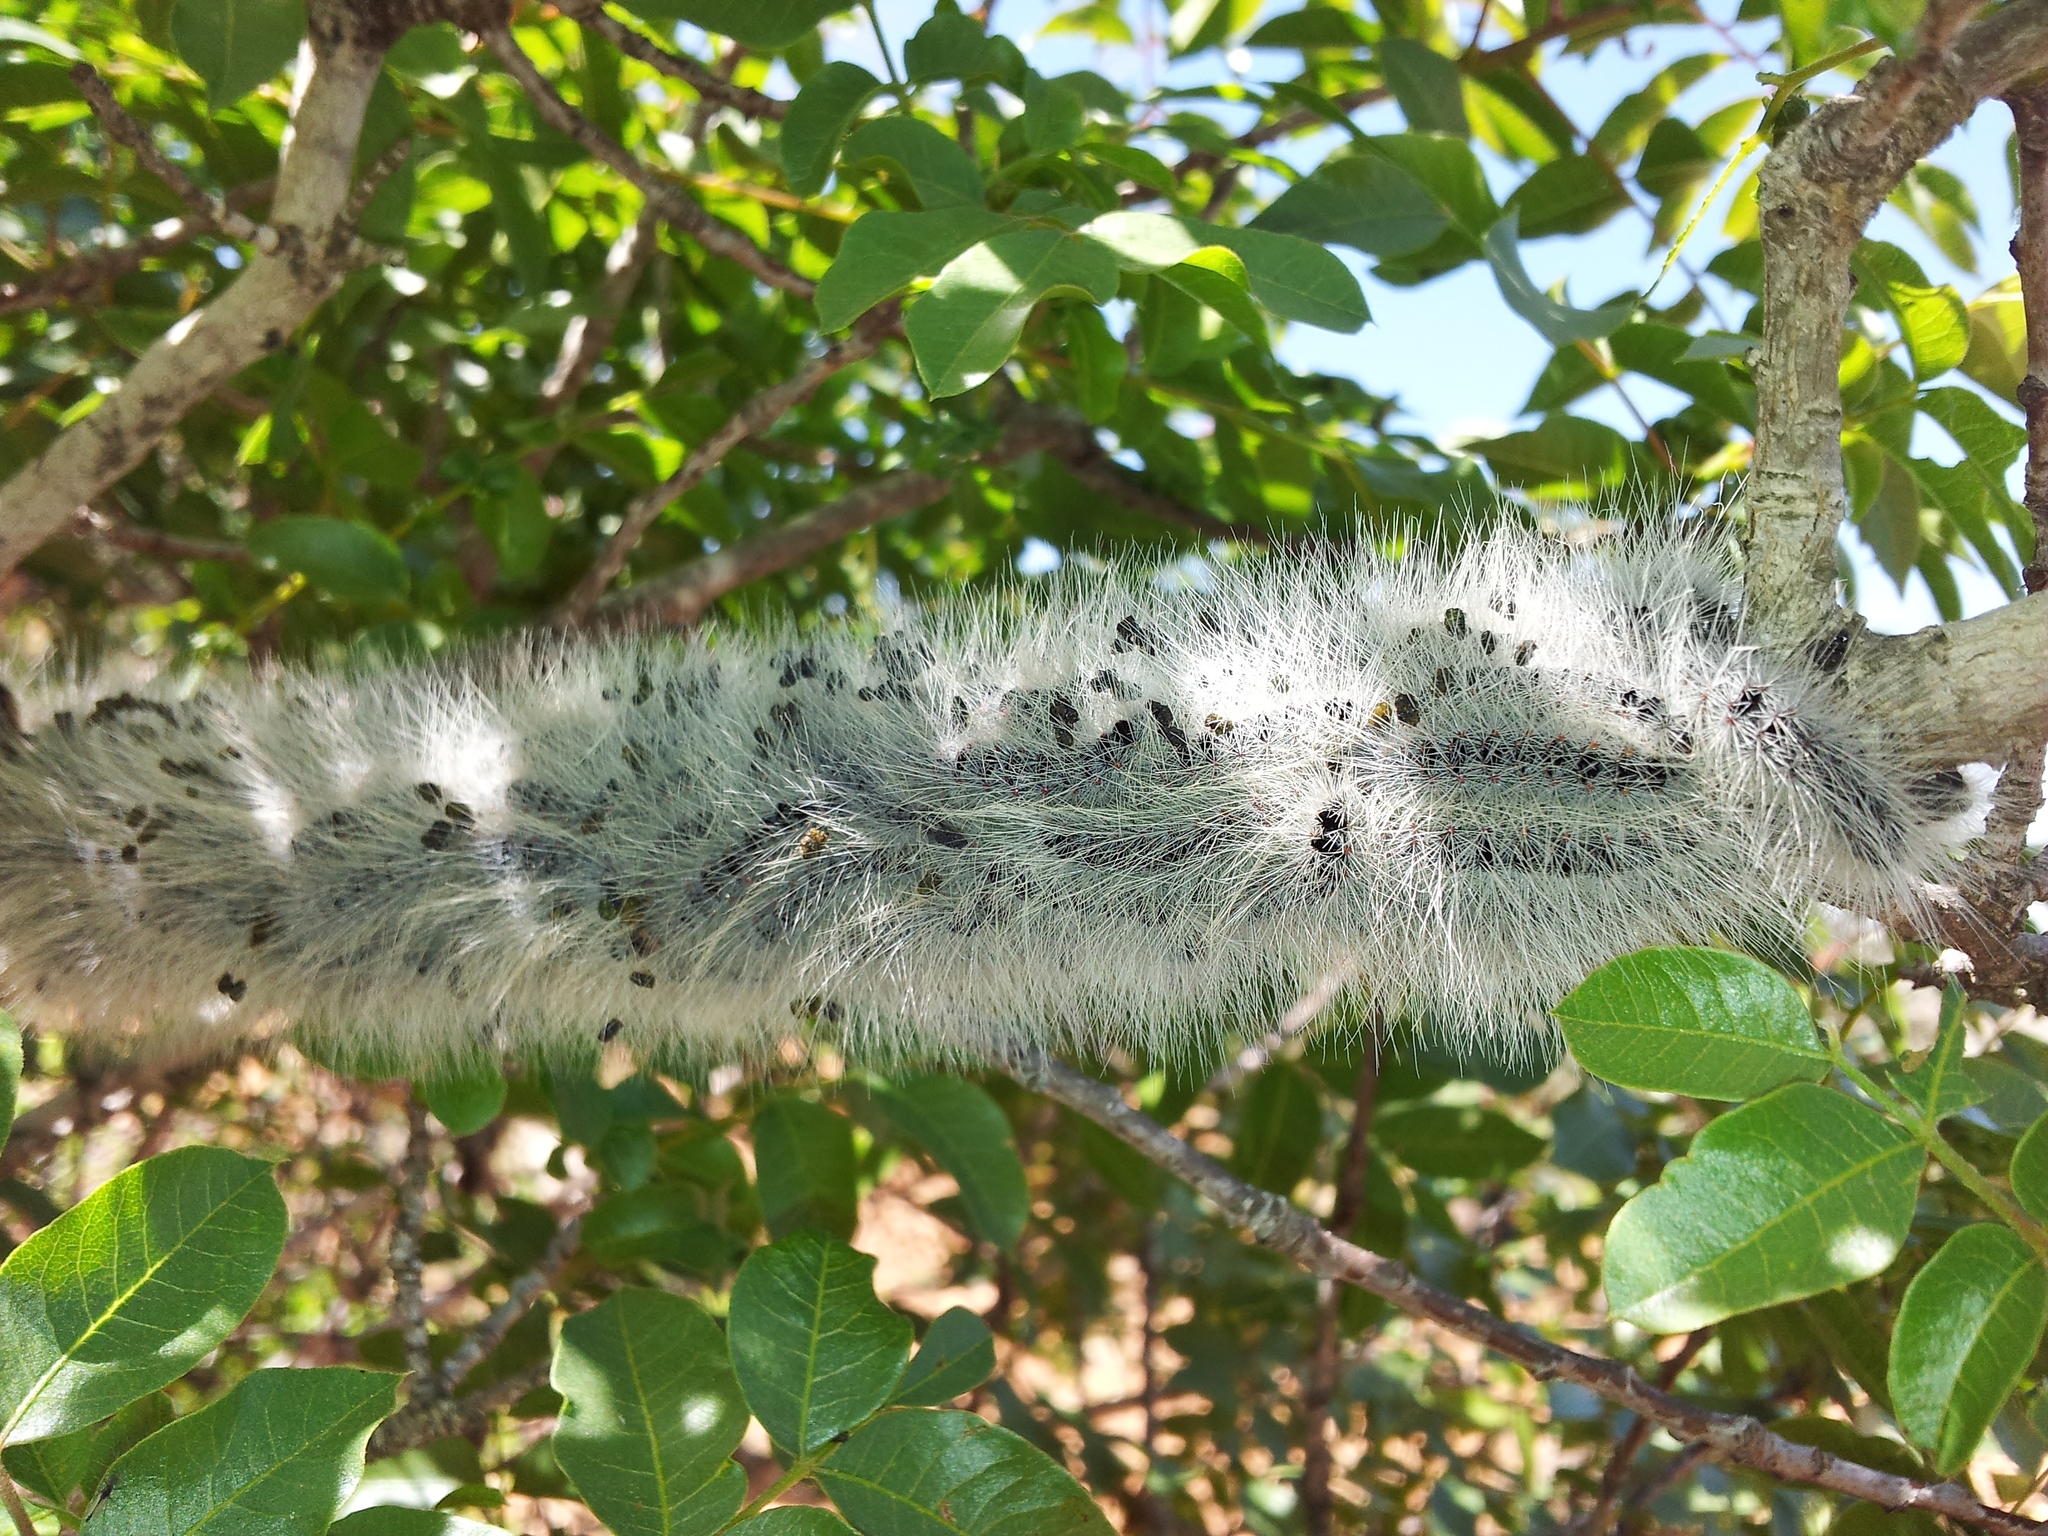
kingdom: Animalia
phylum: Arthropoda
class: Insecta
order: Lepidoptera
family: Notodontidae
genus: Thaumetopoea
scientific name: Thaumetopoea solitaria
